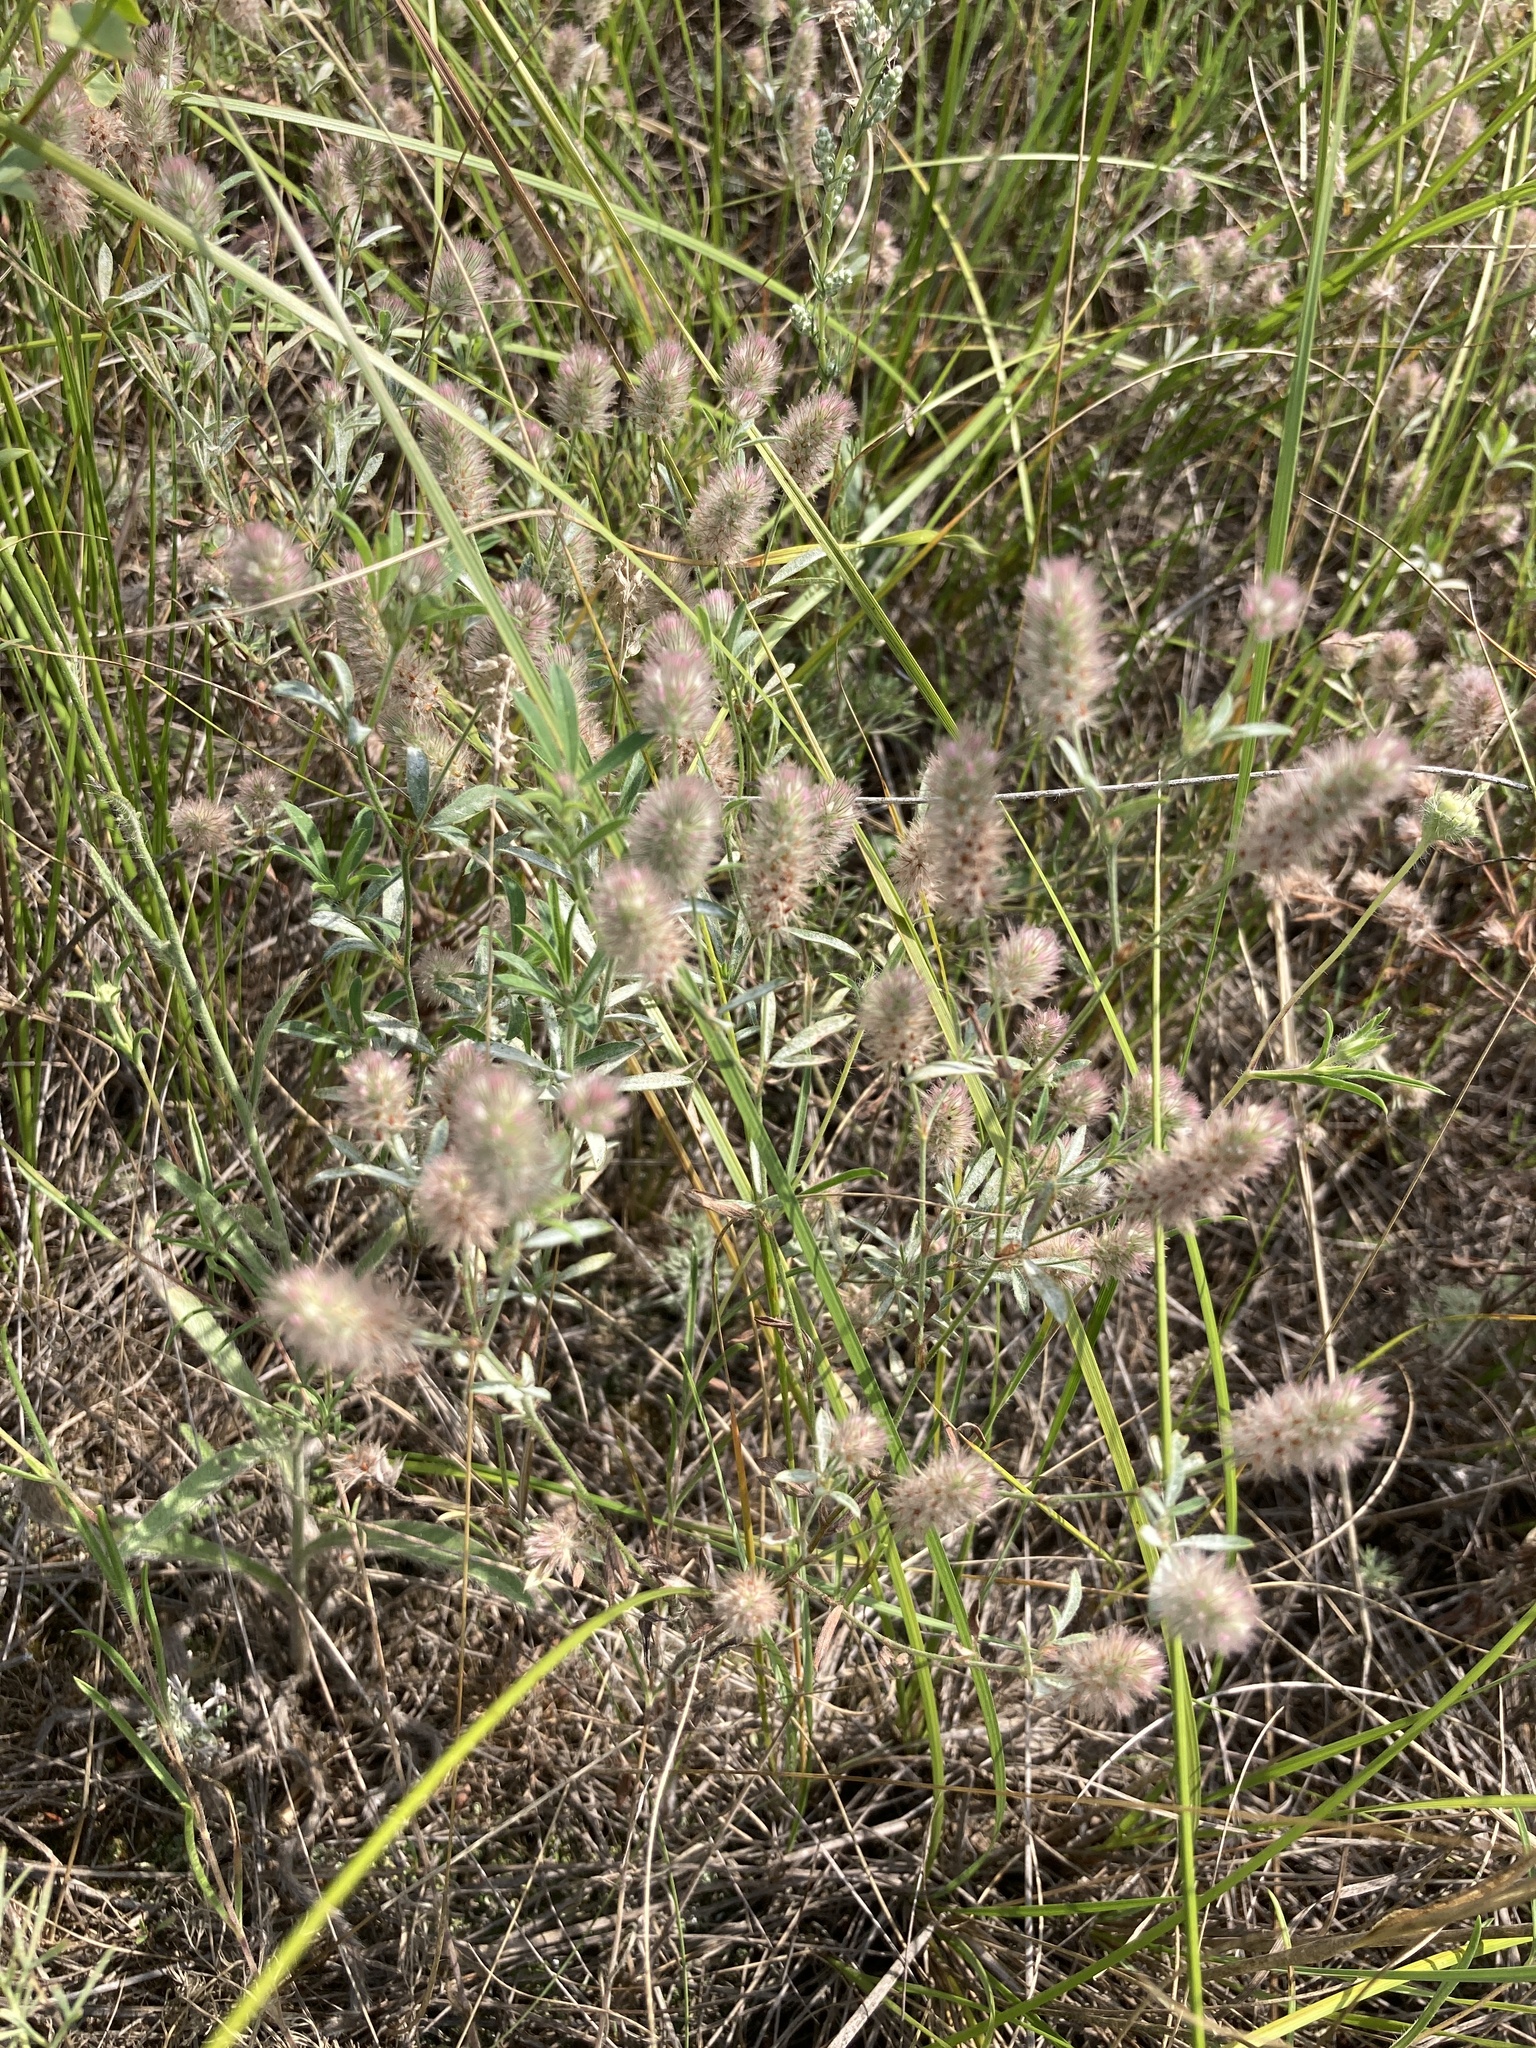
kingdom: Plantae
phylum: Tracheophyta
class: Magnoliopsida
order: Fabales
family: Fabaceae
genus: Trifolium
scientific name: Trifolium arvense
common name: Hare's-foot clover
